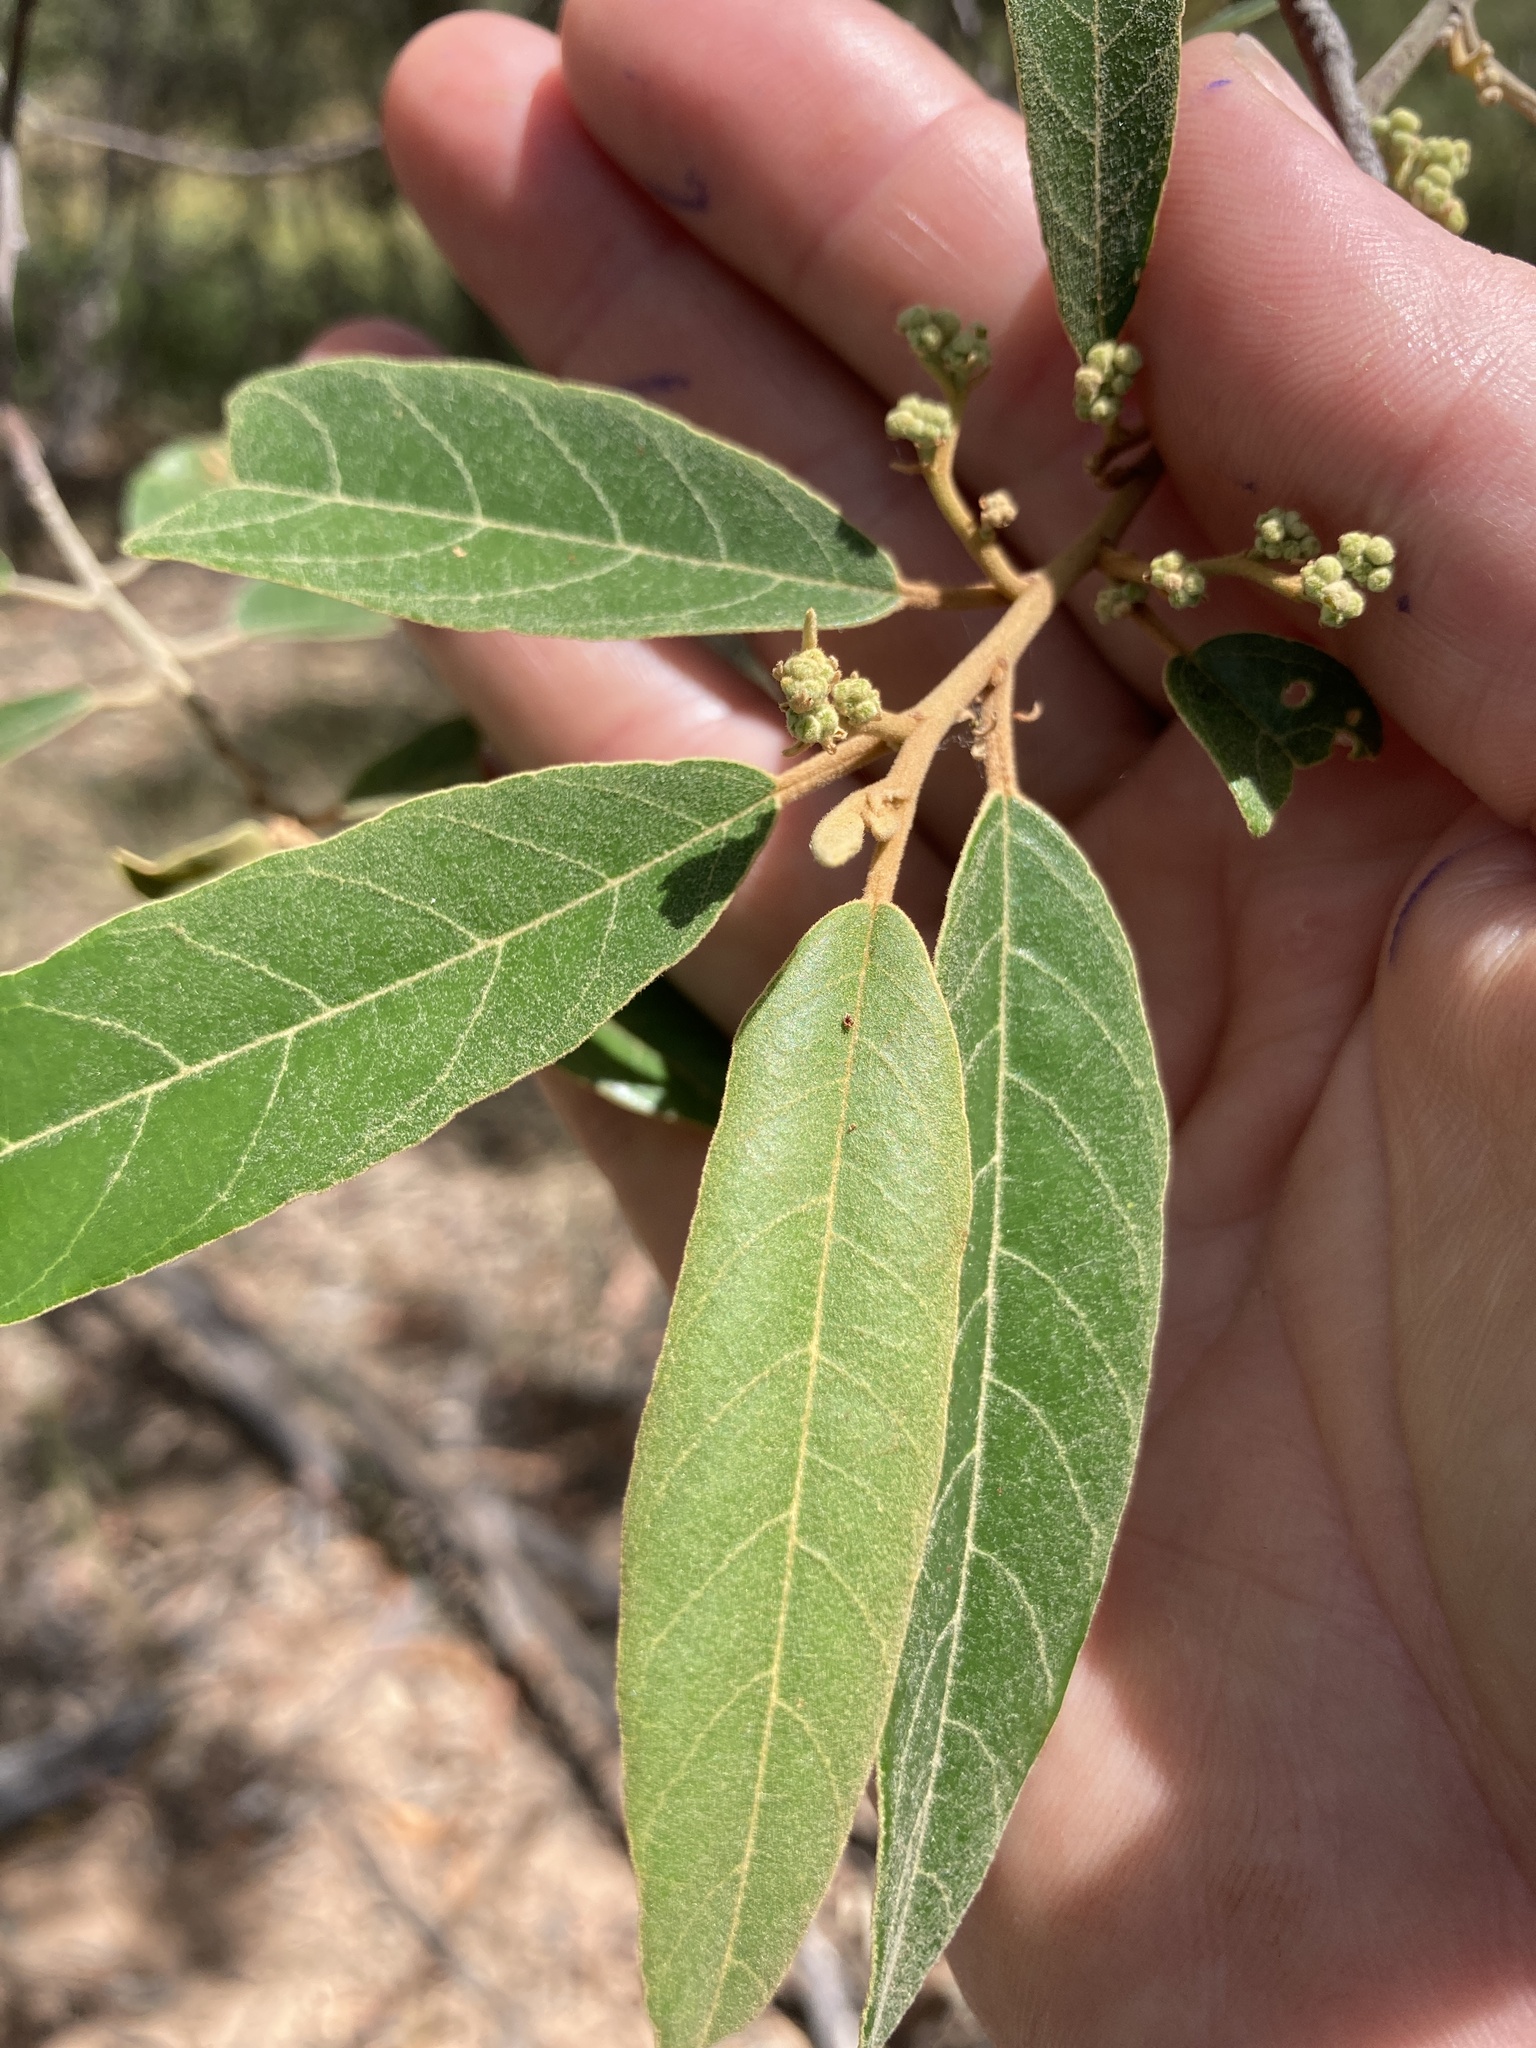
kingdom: Plantae
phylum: Tracheophyta
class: Magnoliopsida
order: Rosales
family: Rhamnaceae
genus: Alphitonia
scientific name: Alphitonia excelsa
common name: Red ash
